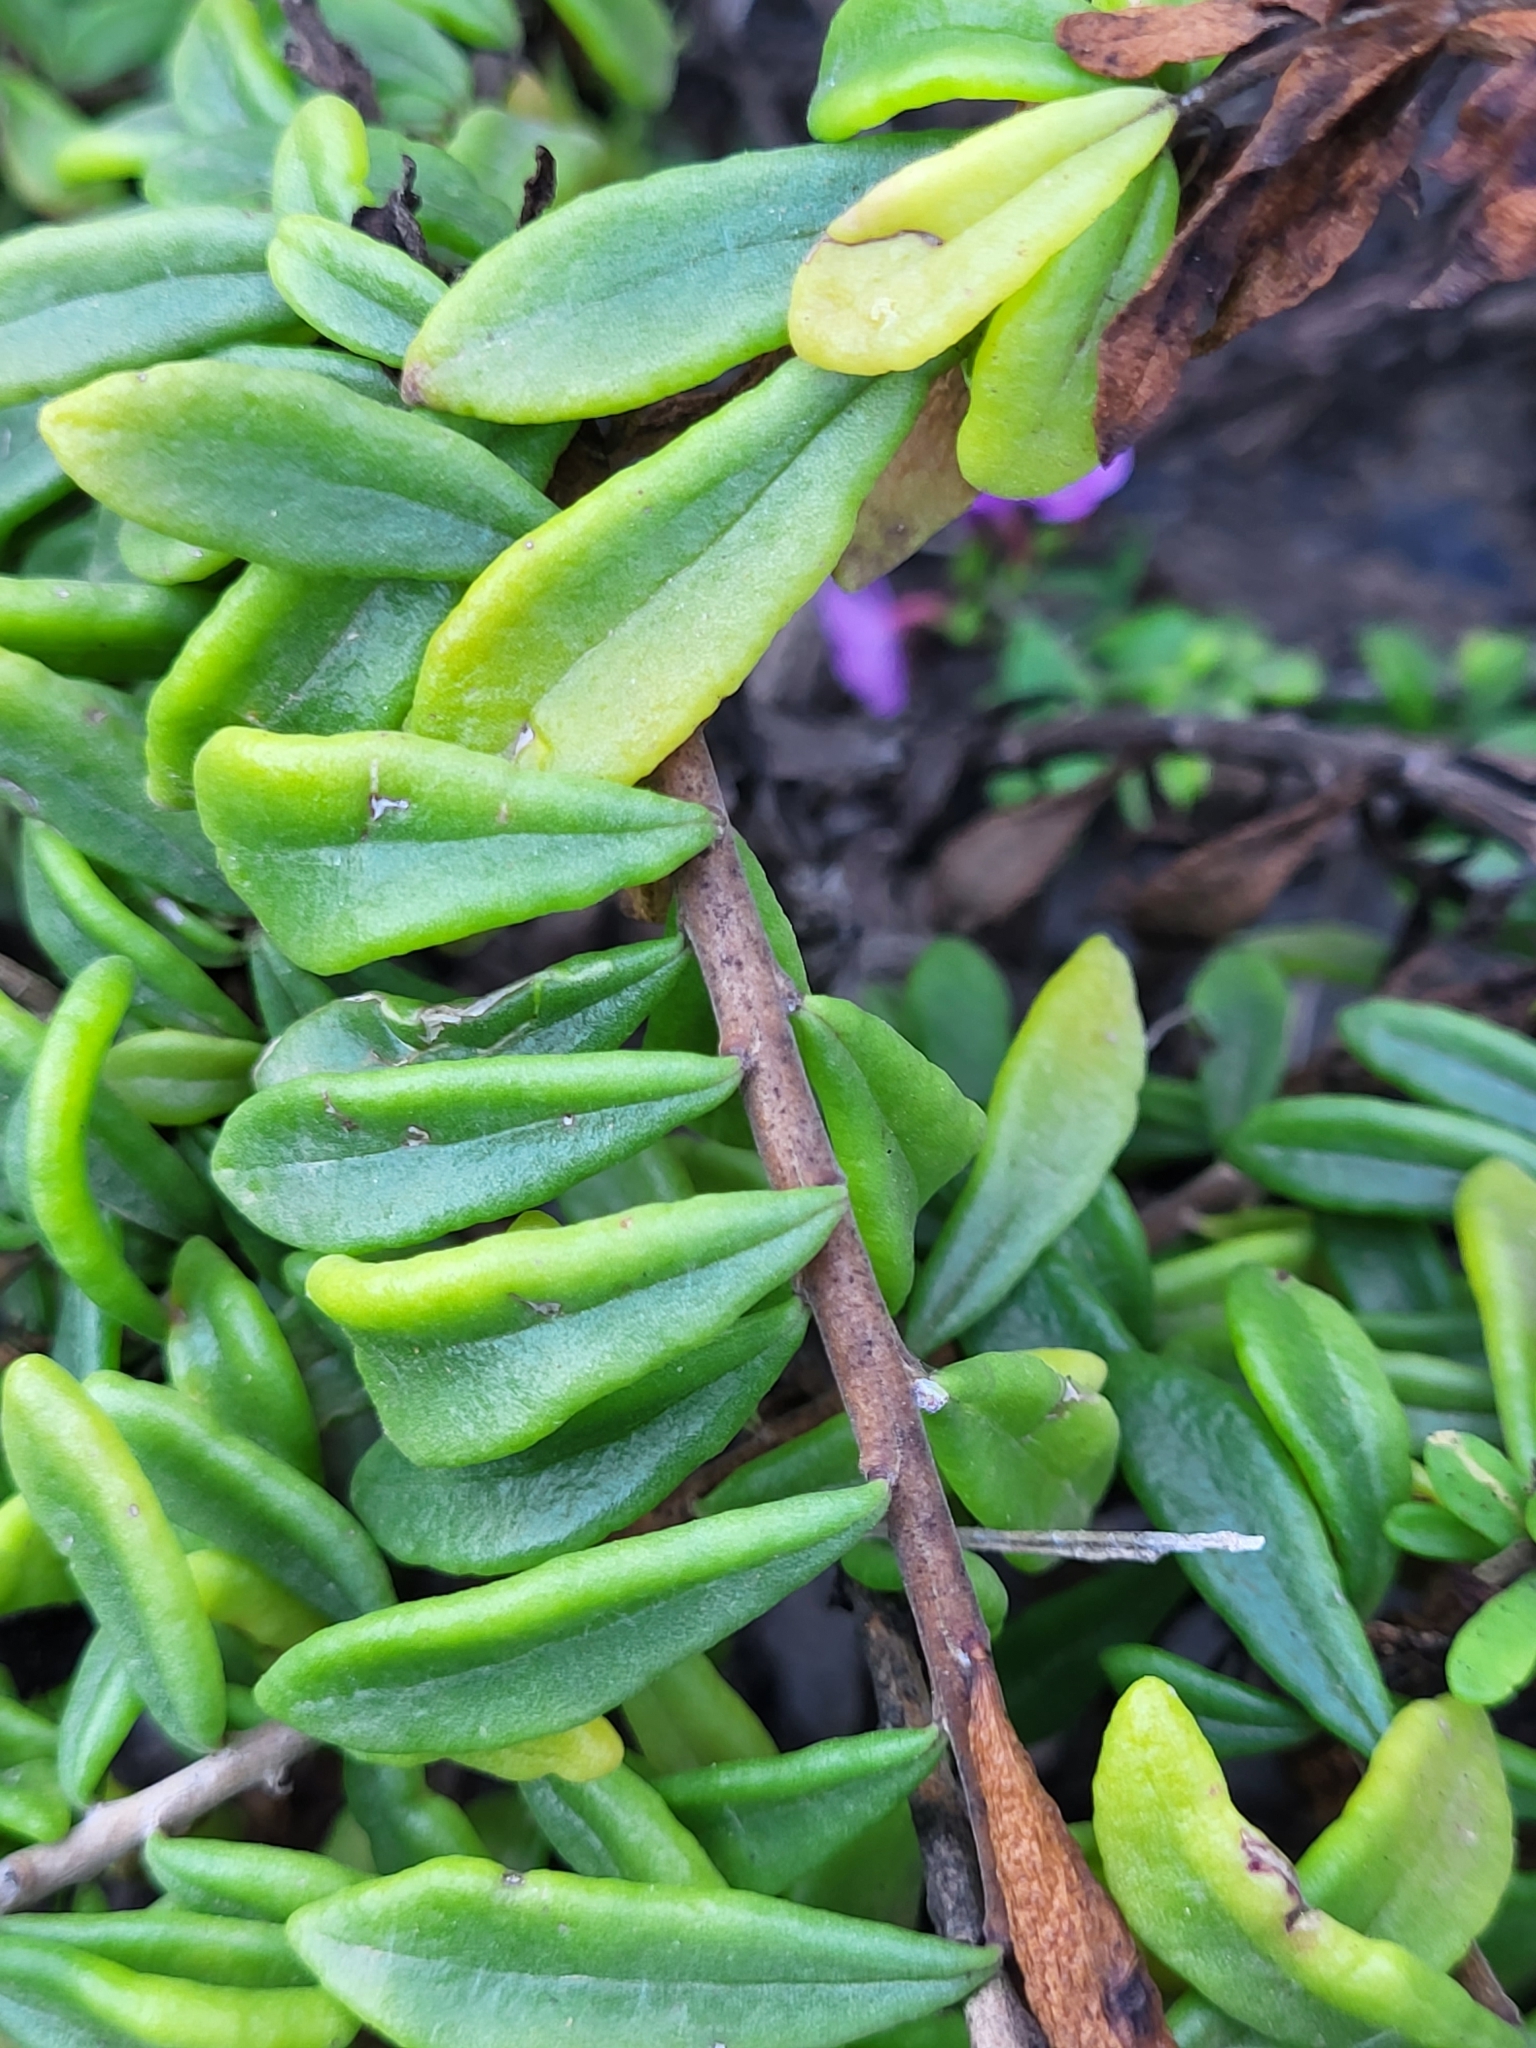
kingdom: Plantae
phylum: Tracheophyta
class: Magnoliopsida
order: Lamiales
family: Plantaginaceae
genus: Campylanthus
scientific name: Campylanthus glaber
